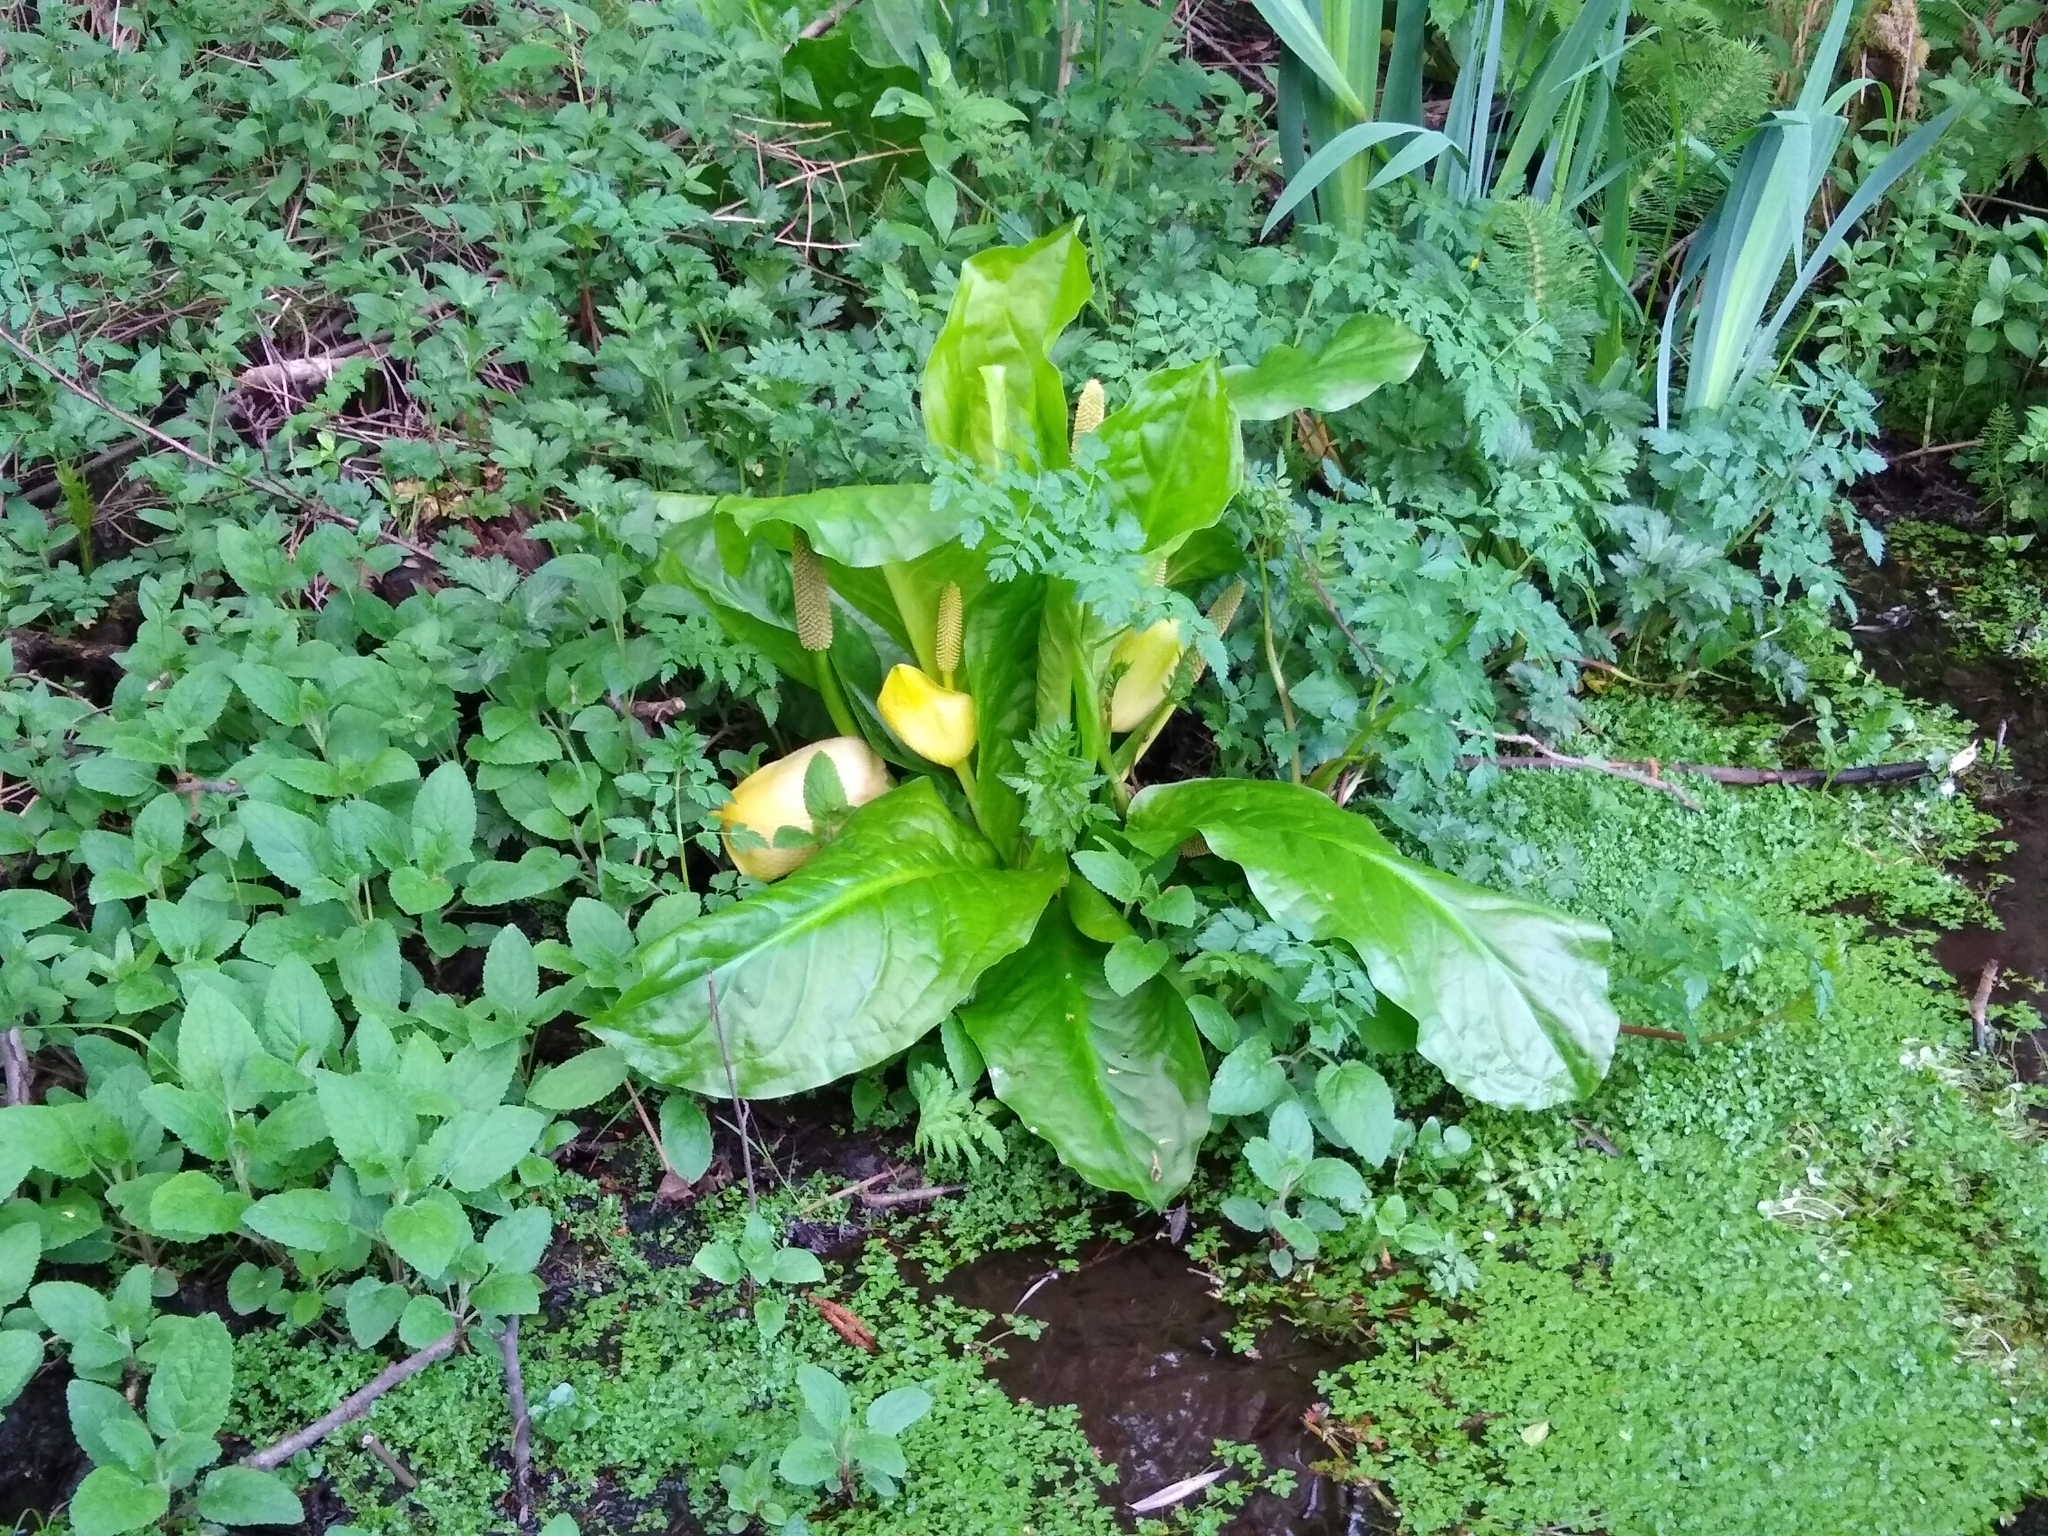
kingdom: Plantae
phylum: Tracheophyta
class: Liliopsida
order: Alismatales
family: Araceae
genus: Lysichiton
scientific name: Lysichiton americanus
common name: American skunk cabbage
